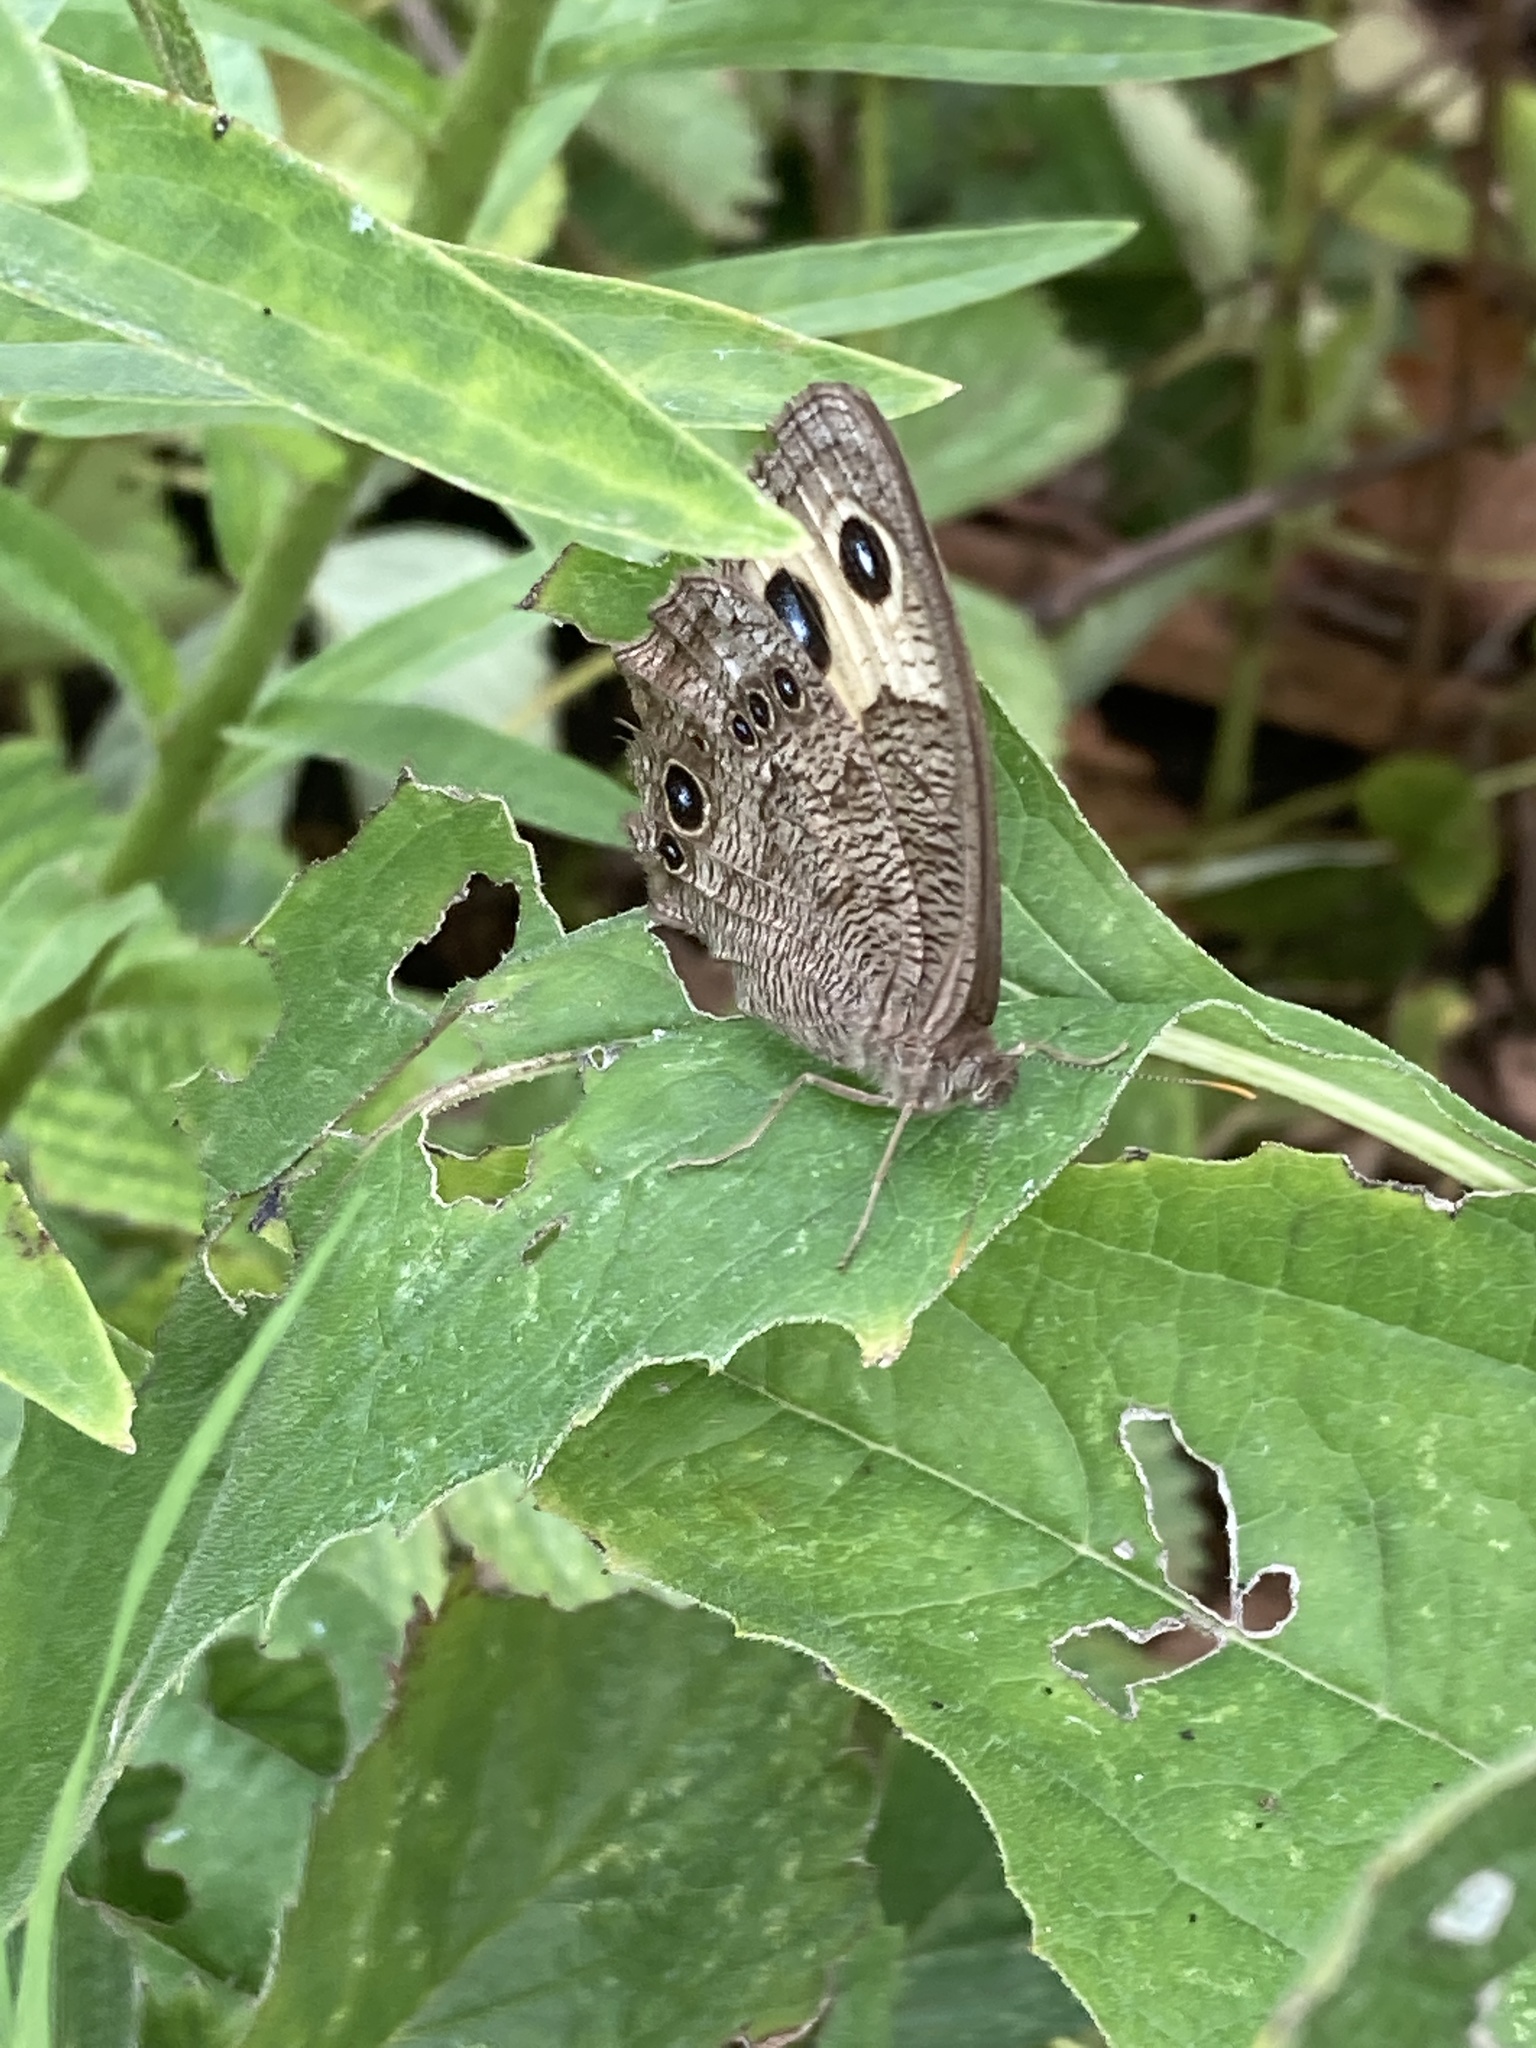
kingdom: Animalia
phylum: Arthropoda
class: Insecta
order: Lepidoptera
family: Nymphalidae
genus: Cercyonis
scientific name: Cercyonis pegala
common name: Common wood-nymph
